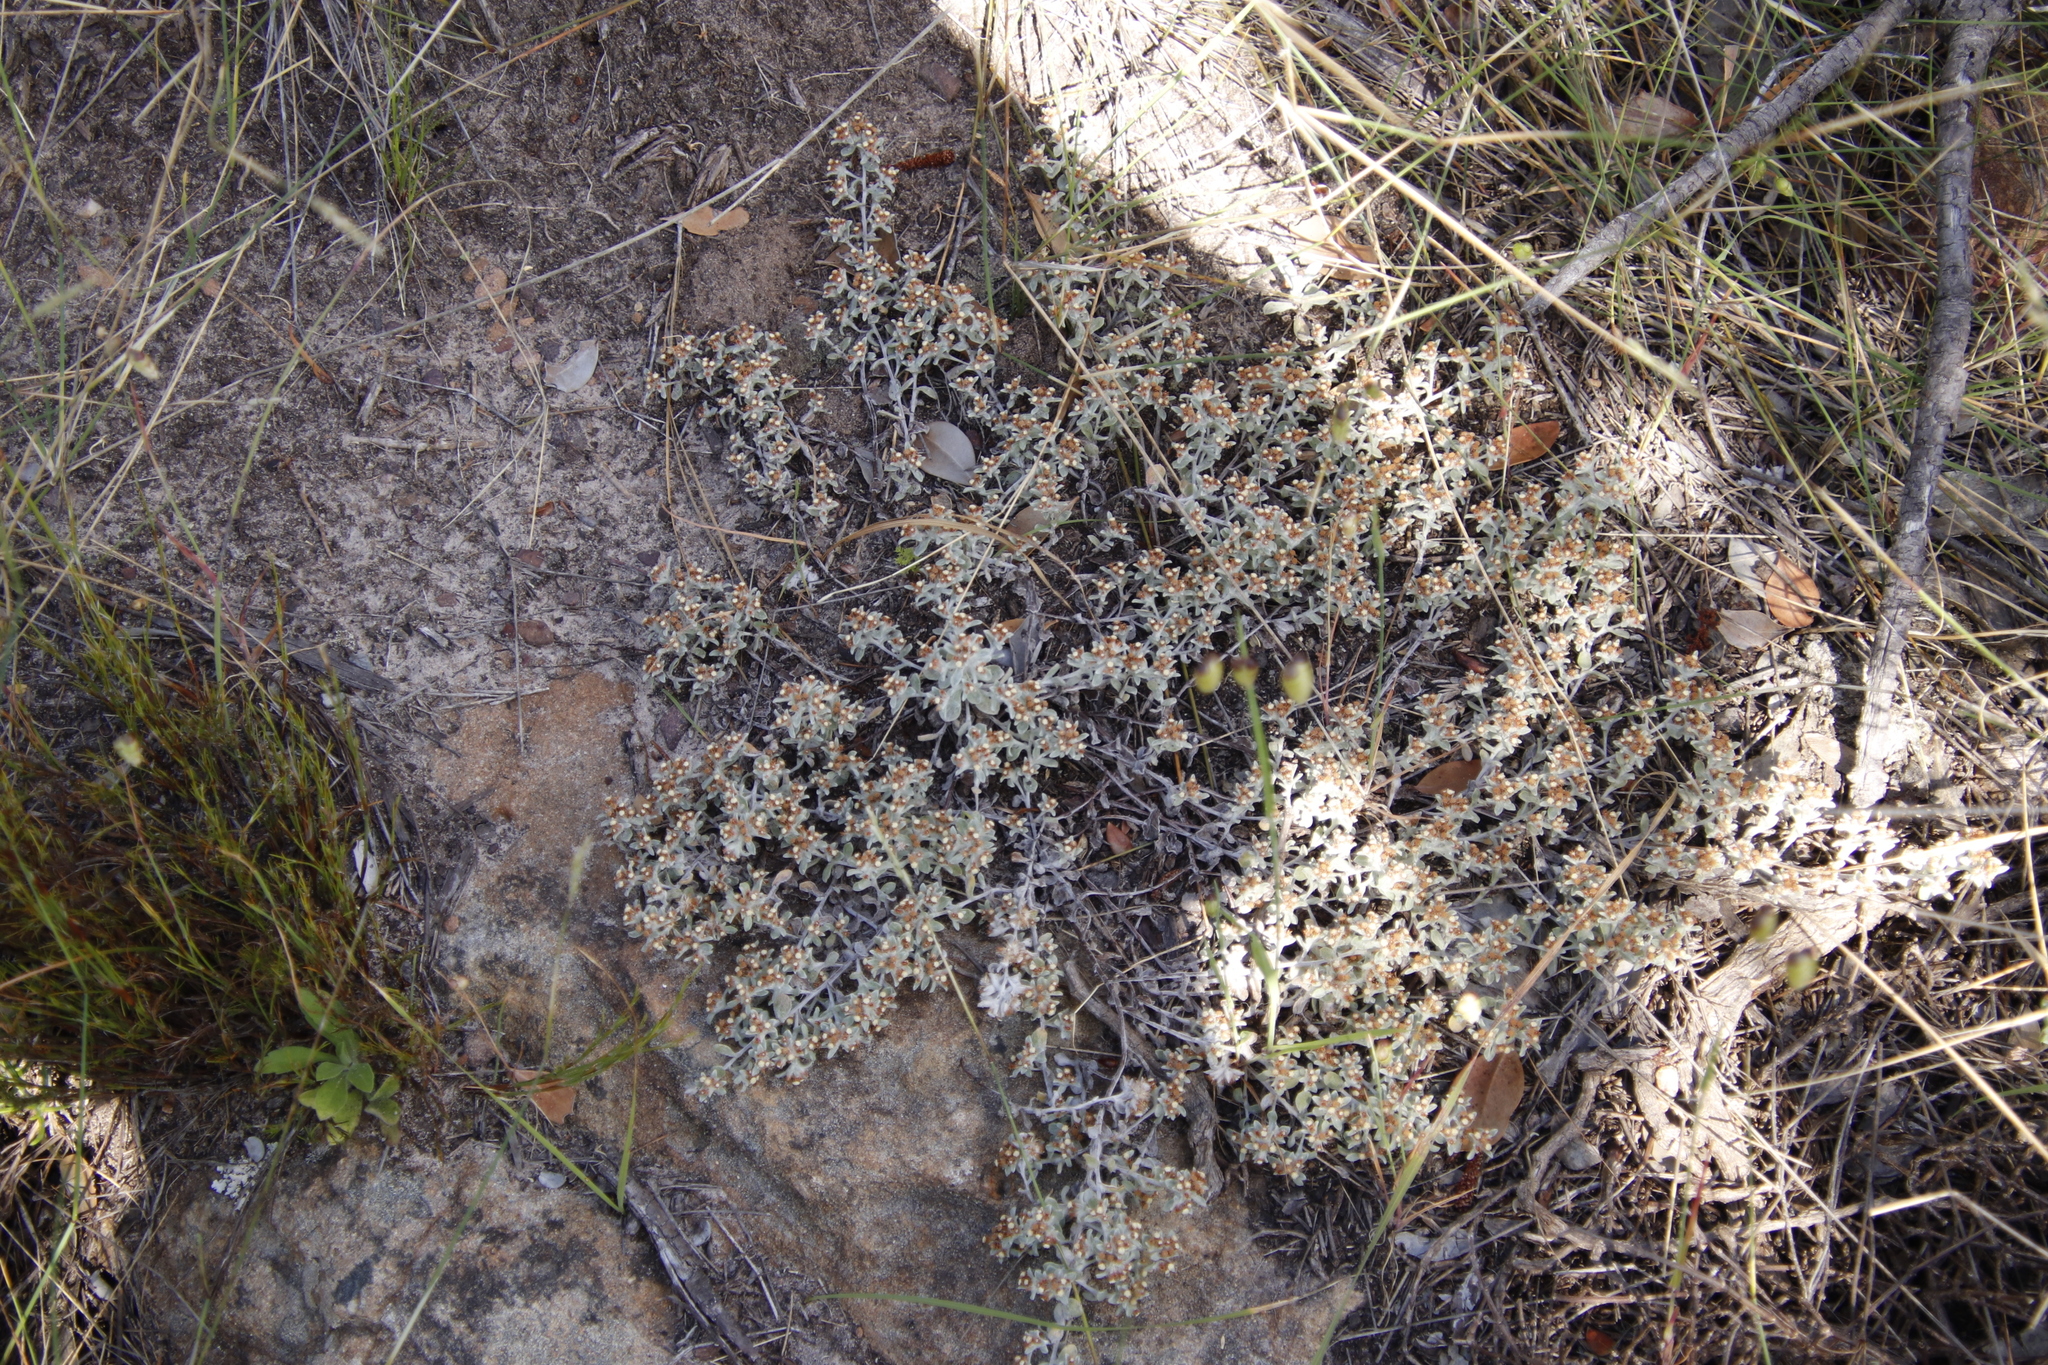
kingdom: Plantae
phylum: Tracheophyta
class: Magnoliopsida
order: Asterales
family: Asteraceae
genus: Helichrysum
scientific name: Helichrysum tinctum
